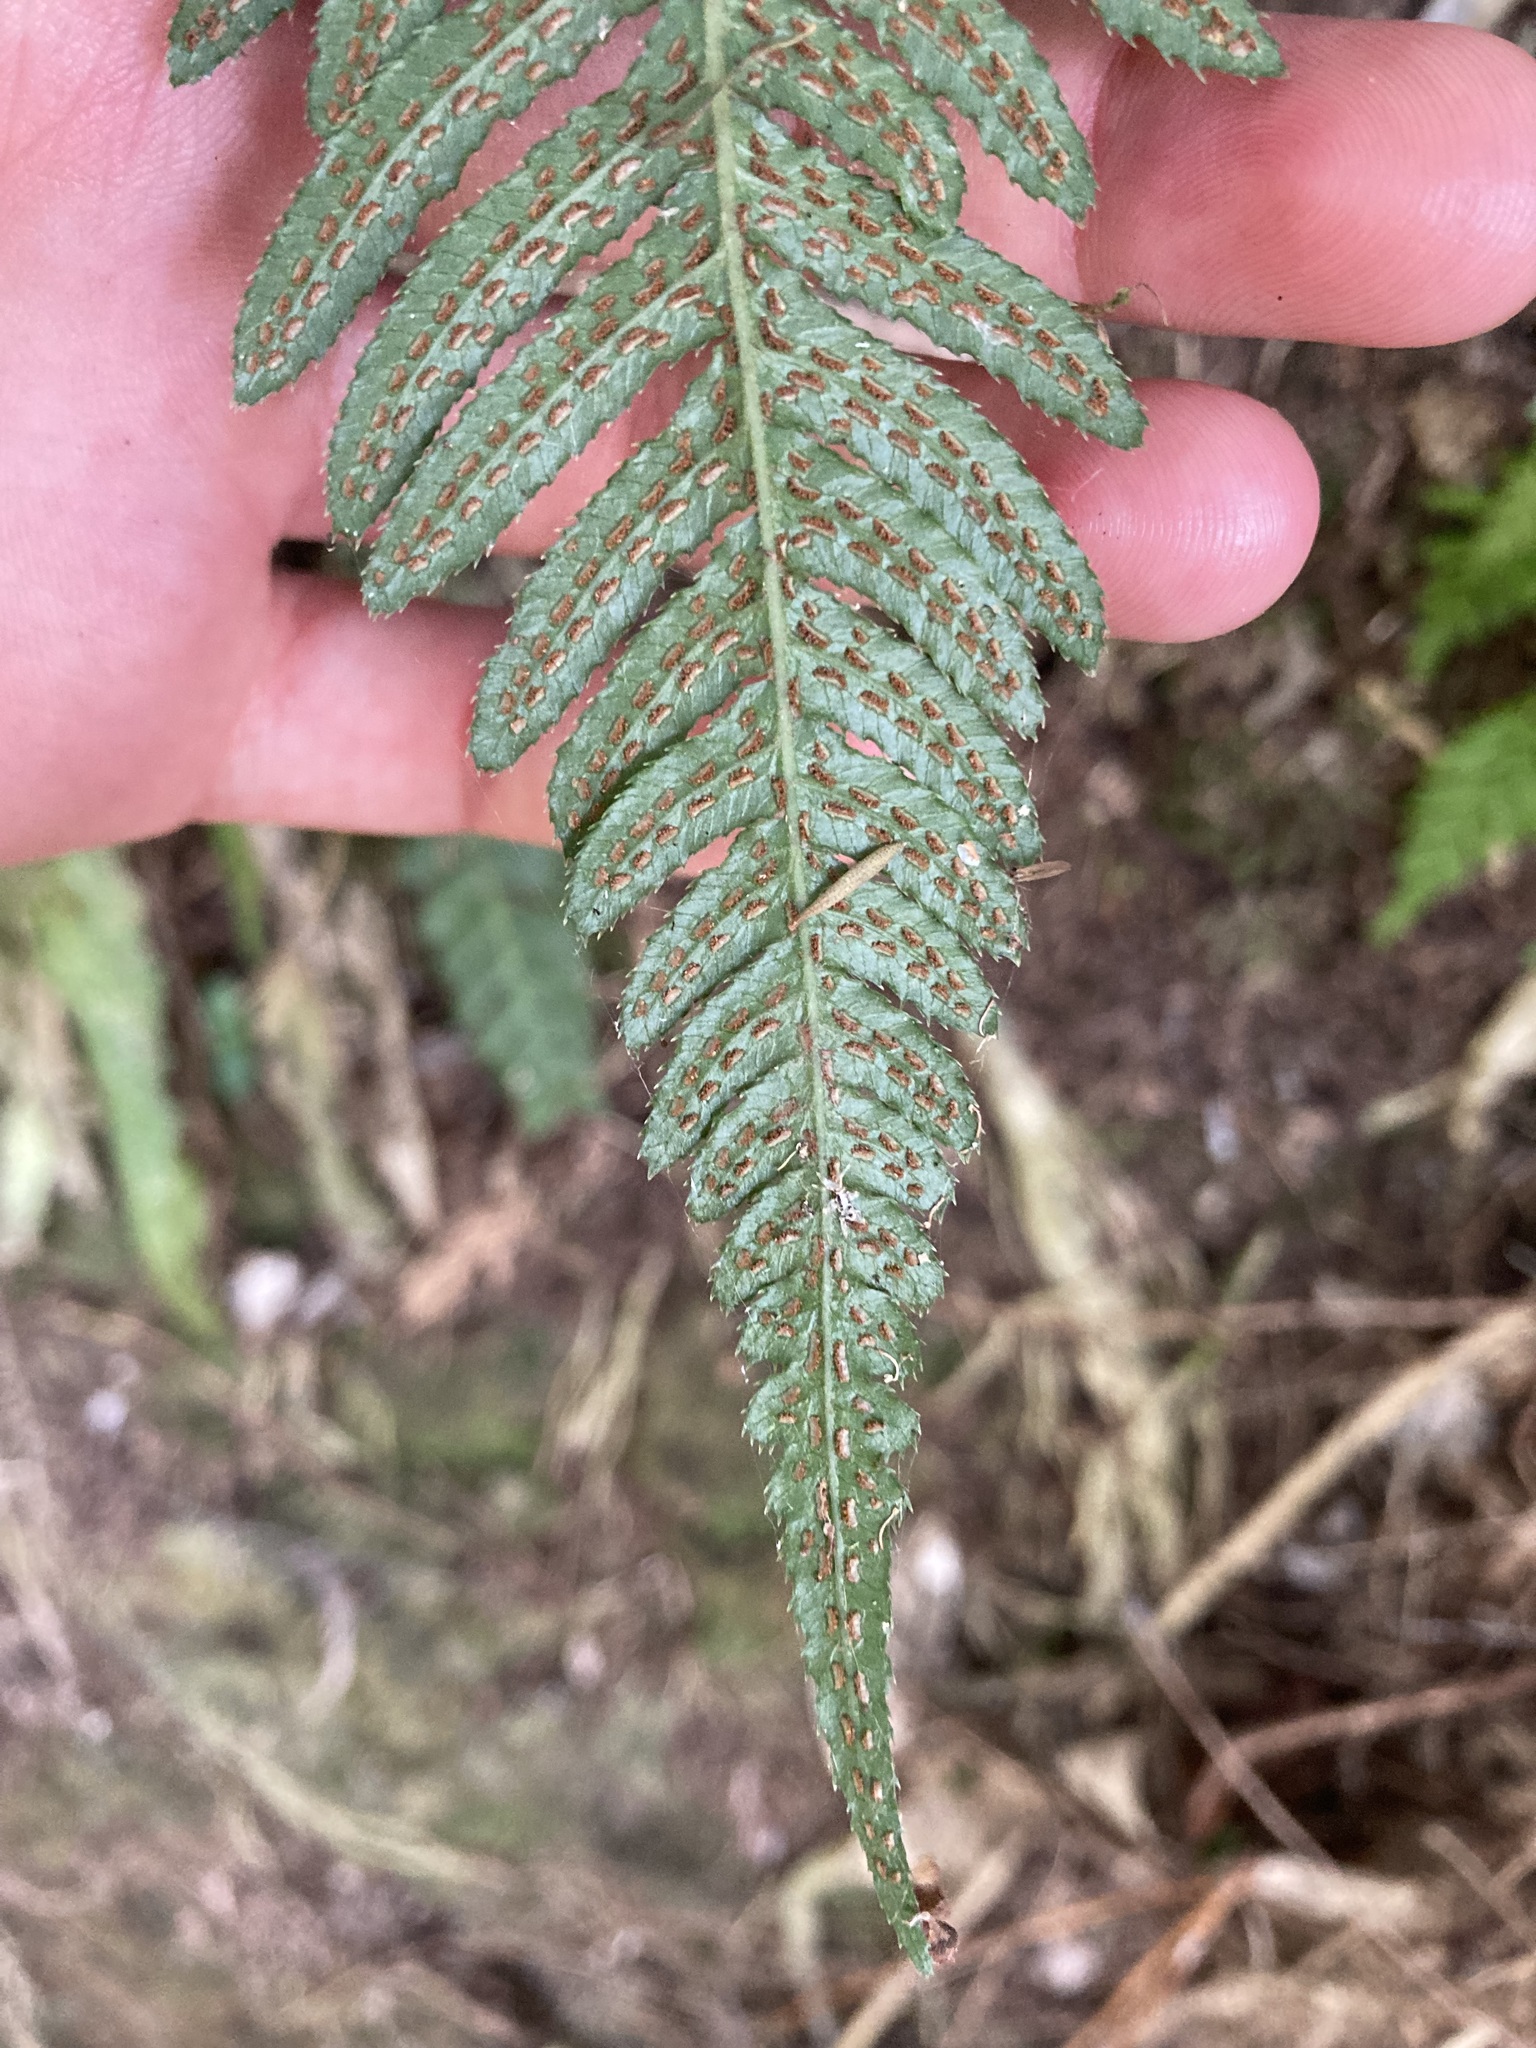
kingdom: Plantae
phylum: Tracheophyta
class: Polypodiopsida
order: Polypodiales
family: Blechnaceae
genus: Doodia
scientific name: Doodia australis
